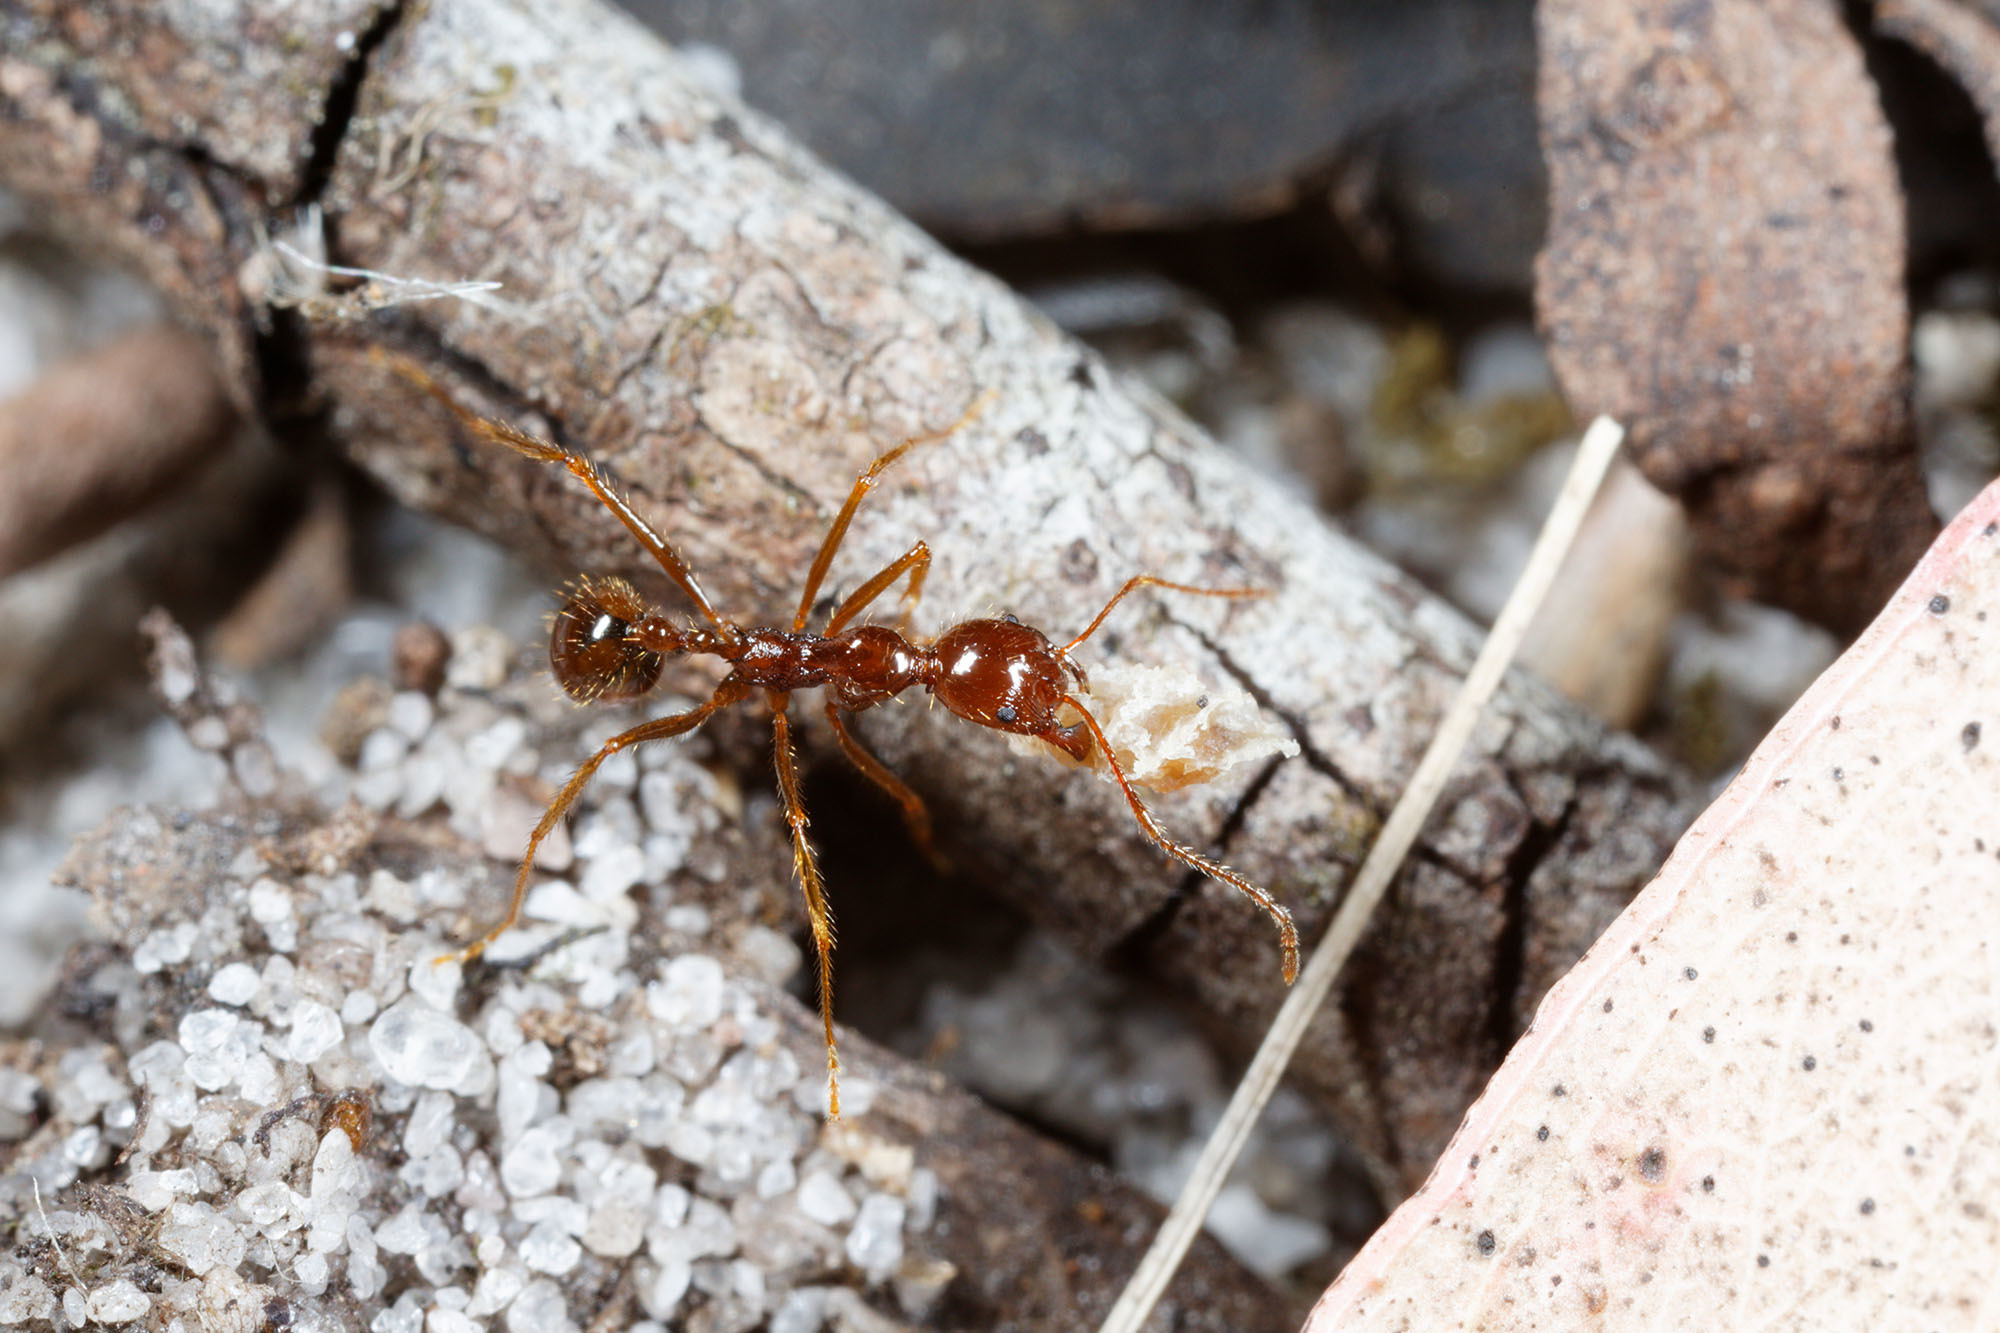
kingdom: Animalia
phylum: Arthropoda
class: Insecta
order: Hymenoptera
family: Formicidae
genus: Aphaenogaster
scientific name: Aphaenogaster longiceps
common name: Funnel ant
